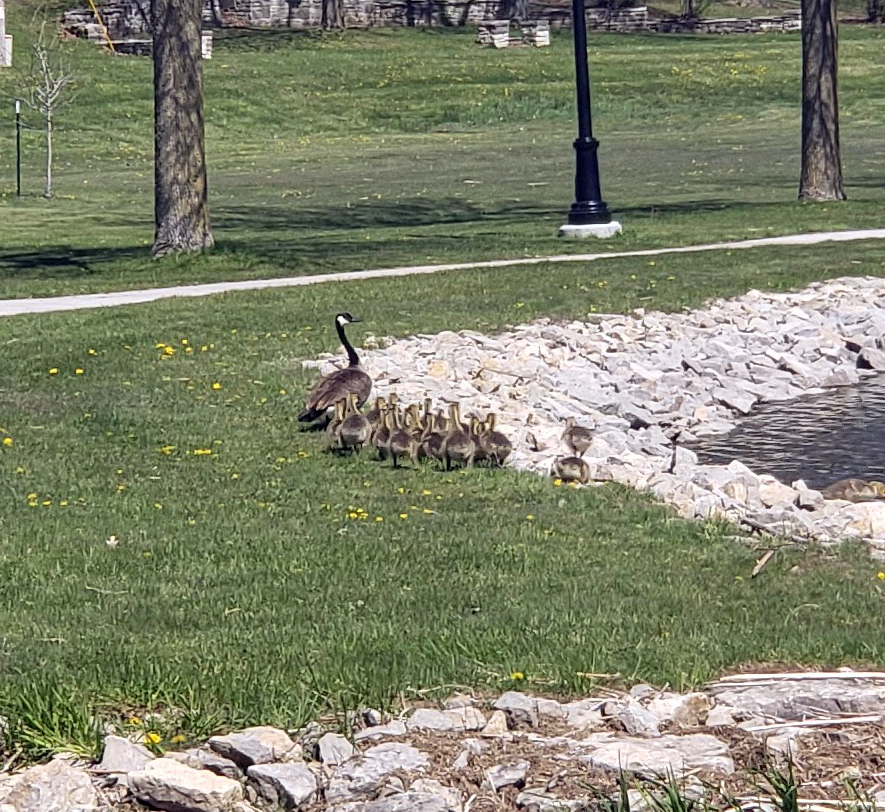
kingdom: Animalia
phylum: Chordata
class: Aves
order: Anseriformes
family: Anatidae
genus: Branta
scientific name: Branta canadensis
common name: Canada goose
